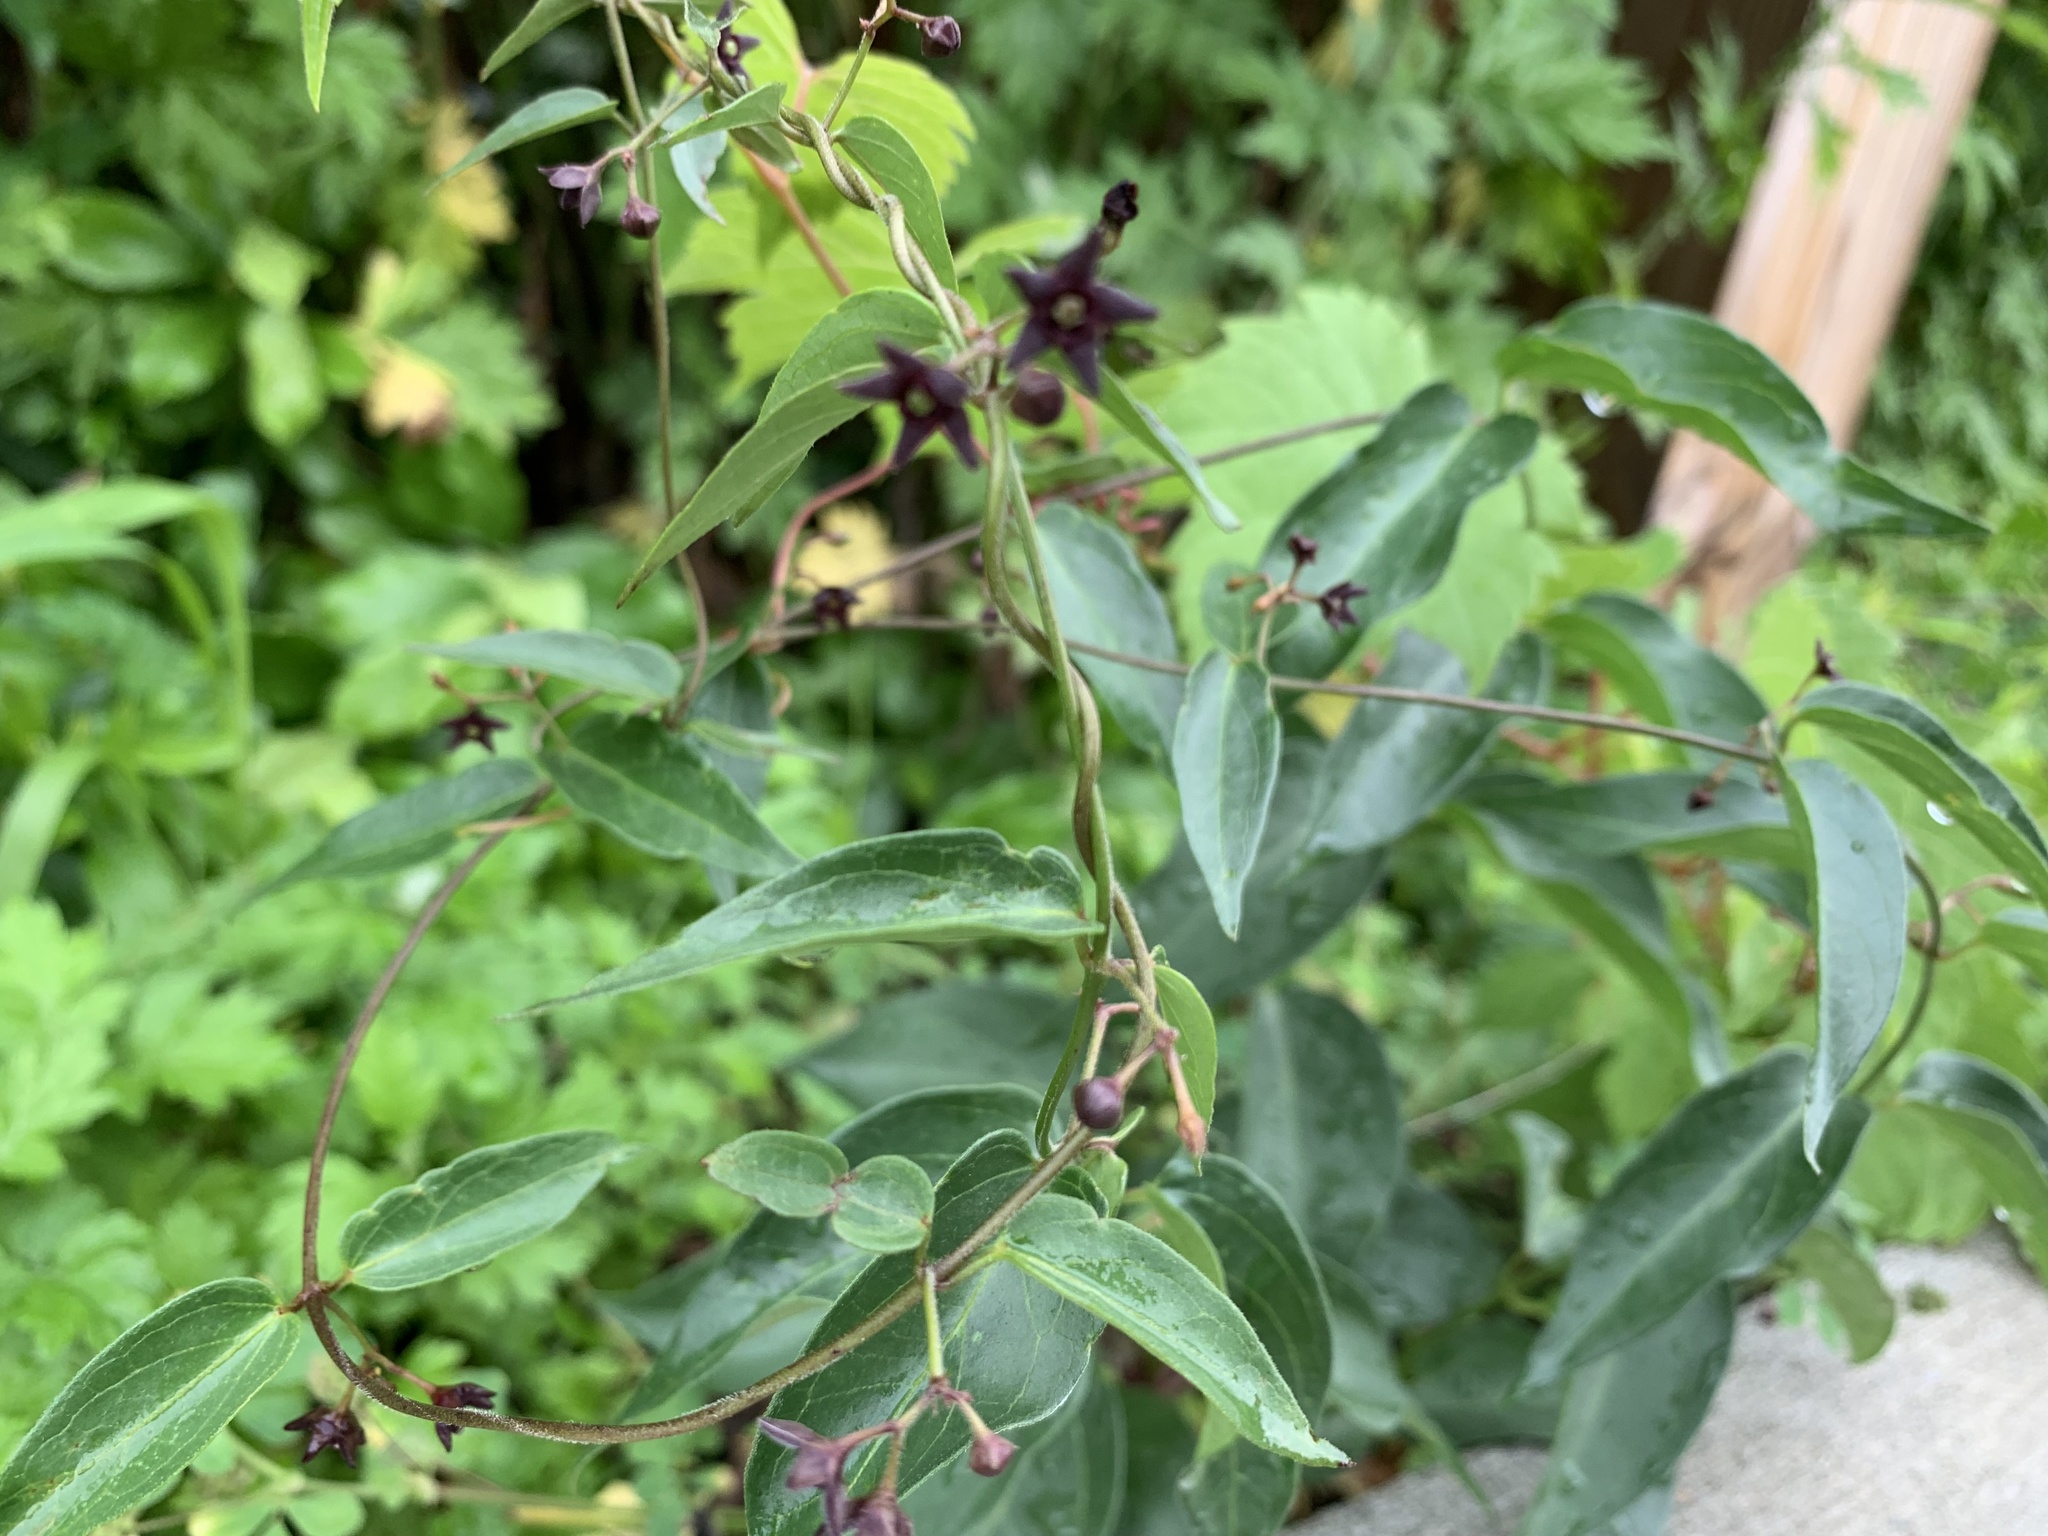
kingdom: Plantae
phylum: Tracheophyta
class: Magnoliopsida
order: Gentianales
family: Apocynaceae
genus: Vincetoxicum
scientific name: Vincetoxicum nigrum
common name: Black swallow-wort
